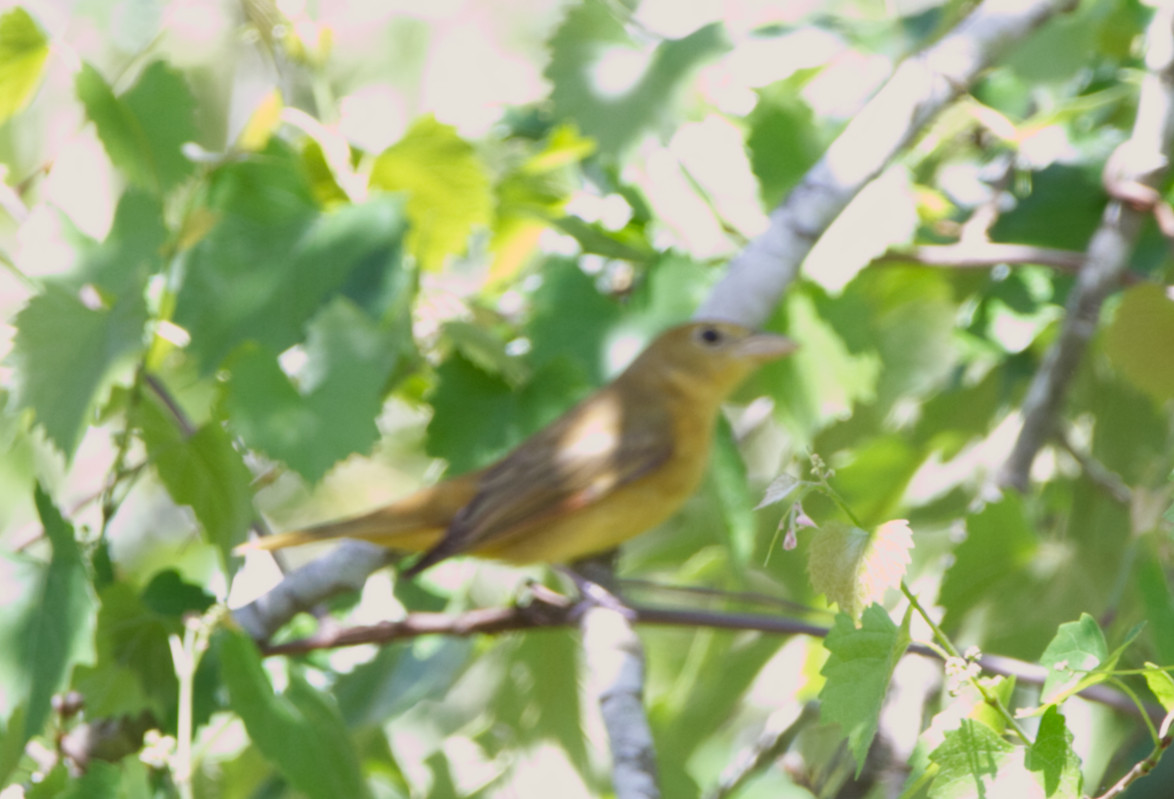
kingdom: Animalia
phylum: Chordata
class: Aves
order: Passeriformes
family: Cardinalidae
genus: Piranga
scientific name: Piranga rubra
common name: Summer tanager
